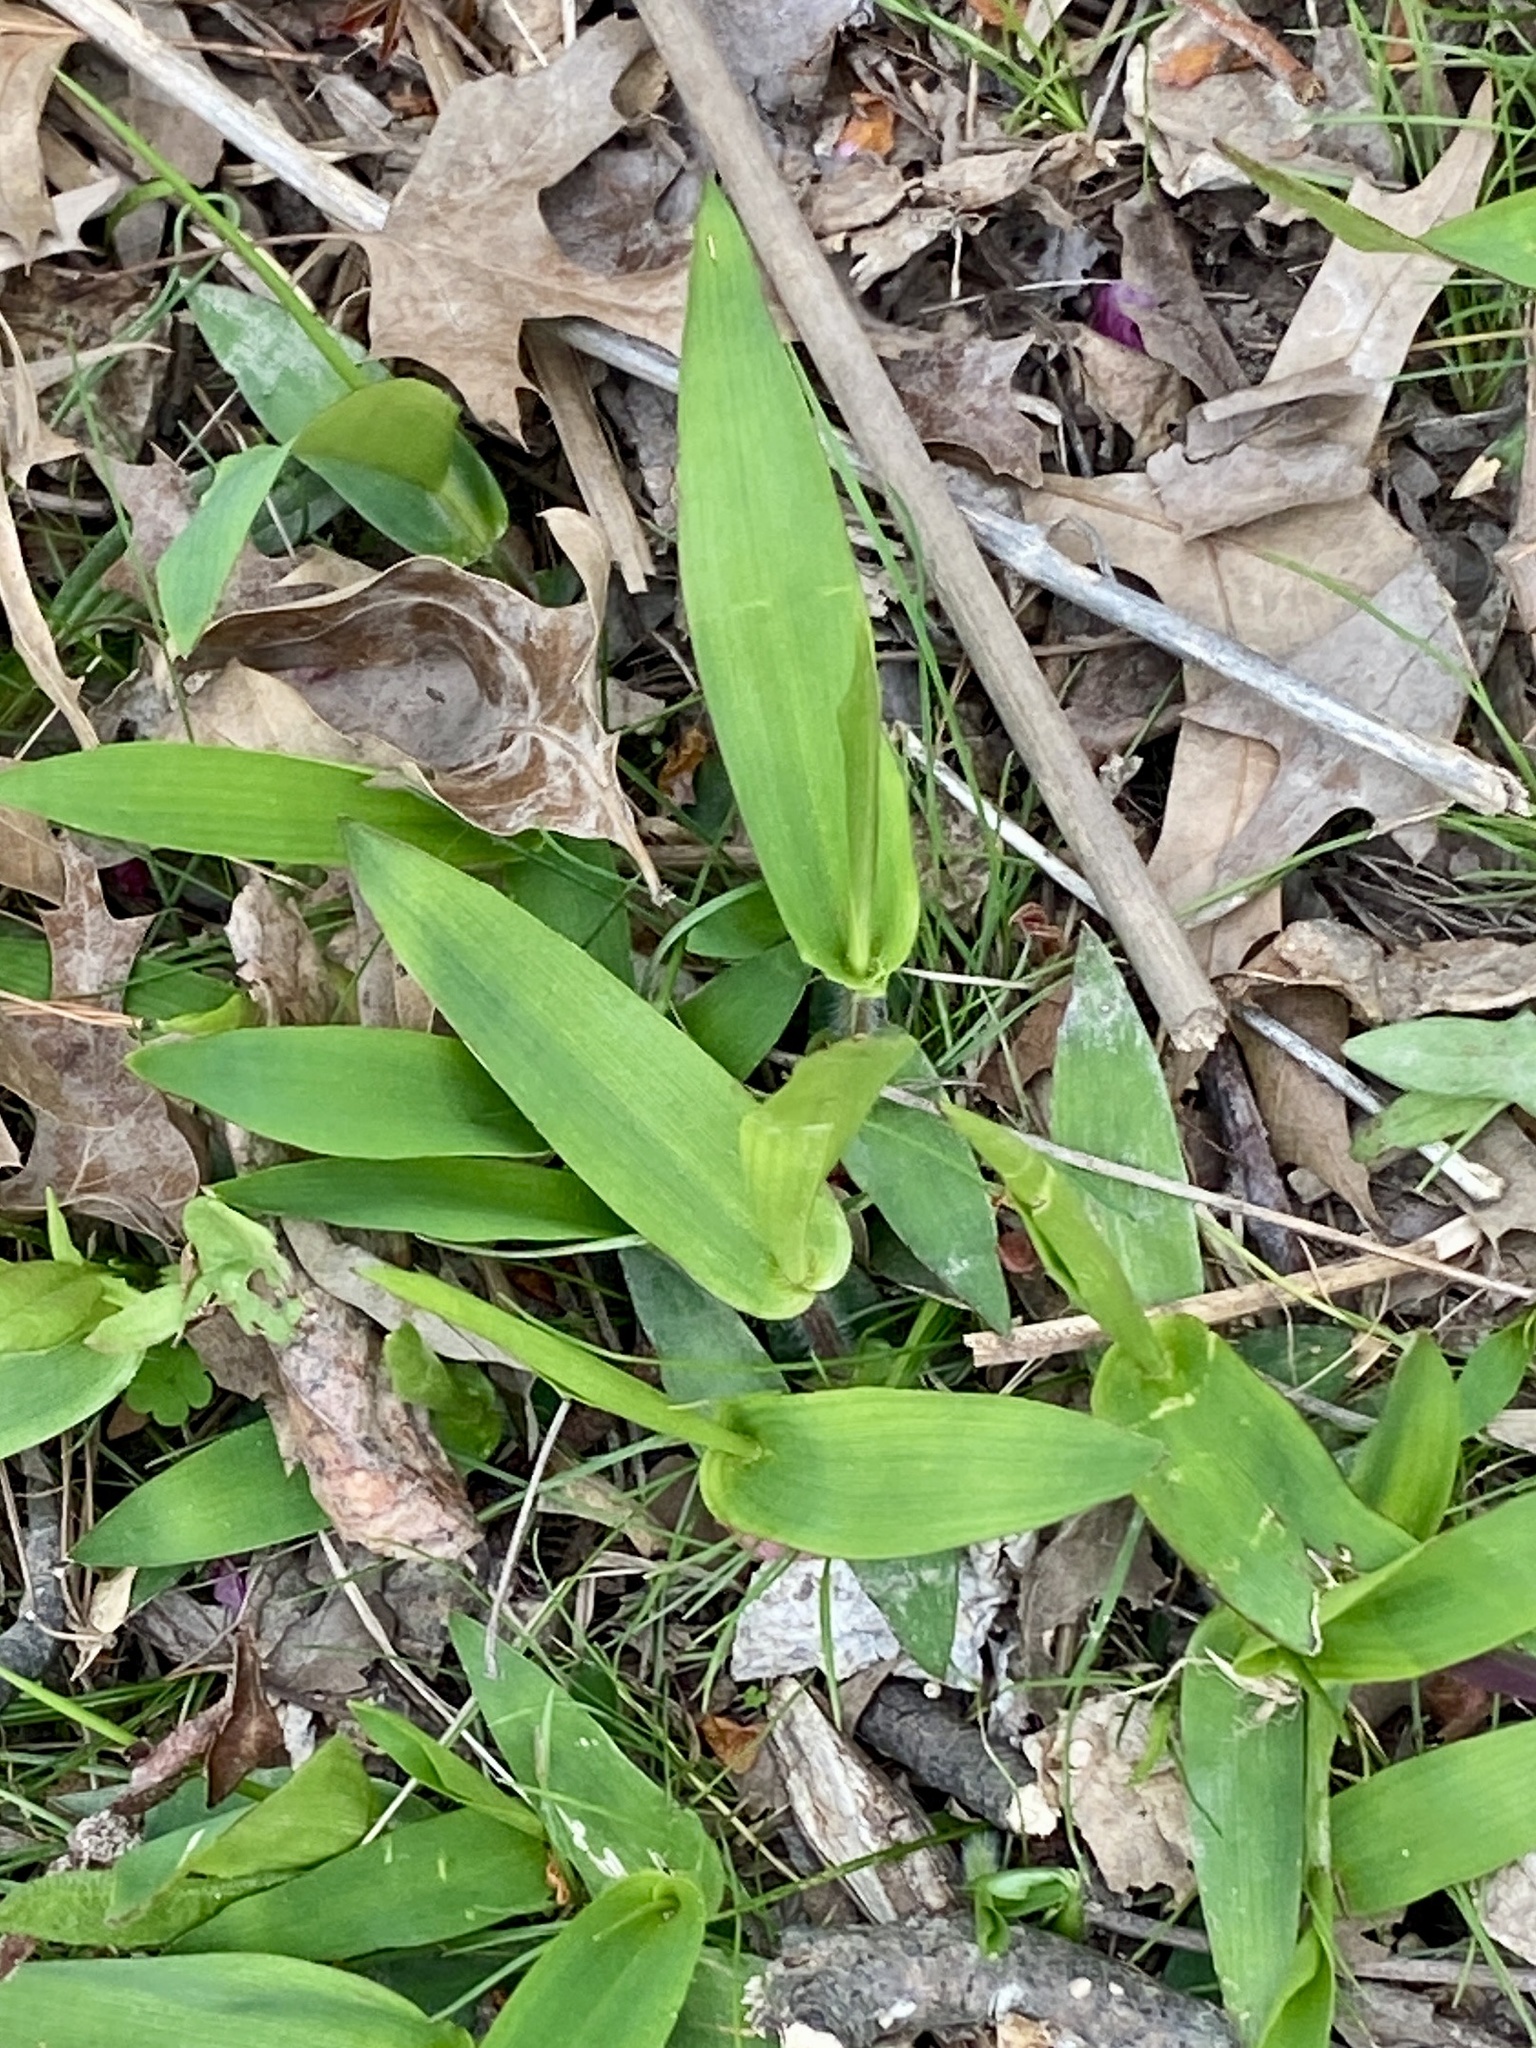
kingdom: Plantae
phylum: Tracheophyta
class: Liliopsida
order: Poales
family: Poaceae
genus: Dichanthelium
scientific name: Dichanthelium clandestinum
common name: Deer-tongue grass
